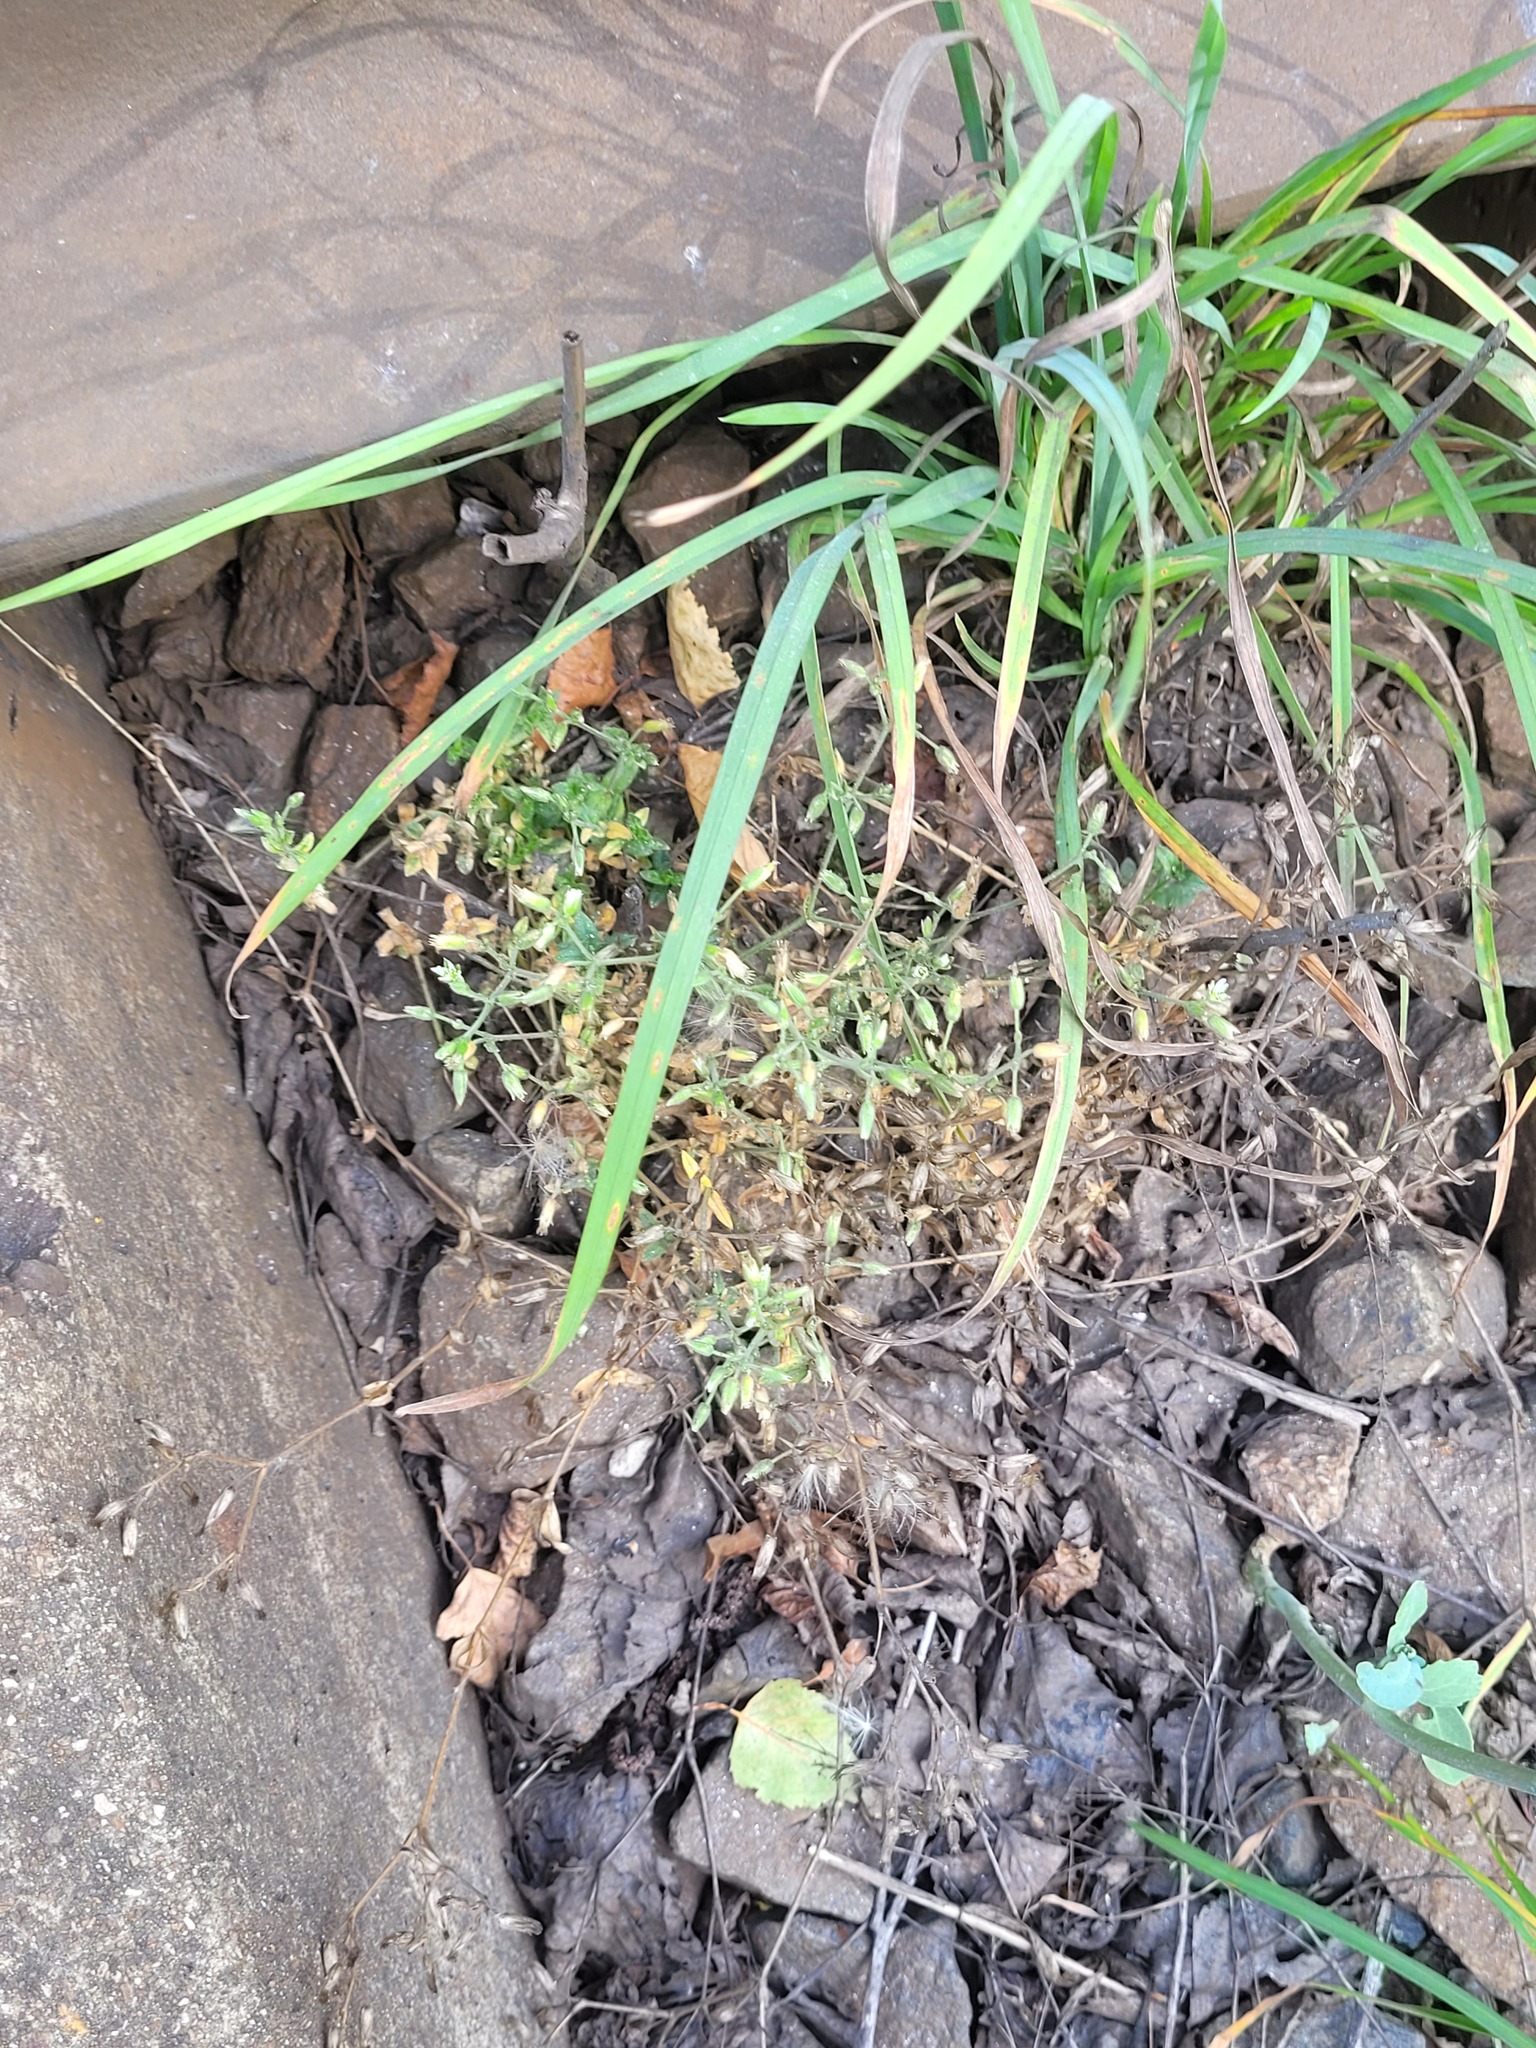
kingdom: Plantae
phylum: Tracheophyta
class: Magnoliopsida
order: Caryophyllales
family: Caryophyllaceae
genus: Cerastium
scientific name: Cerastium holosteoides
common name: Big chickweed
